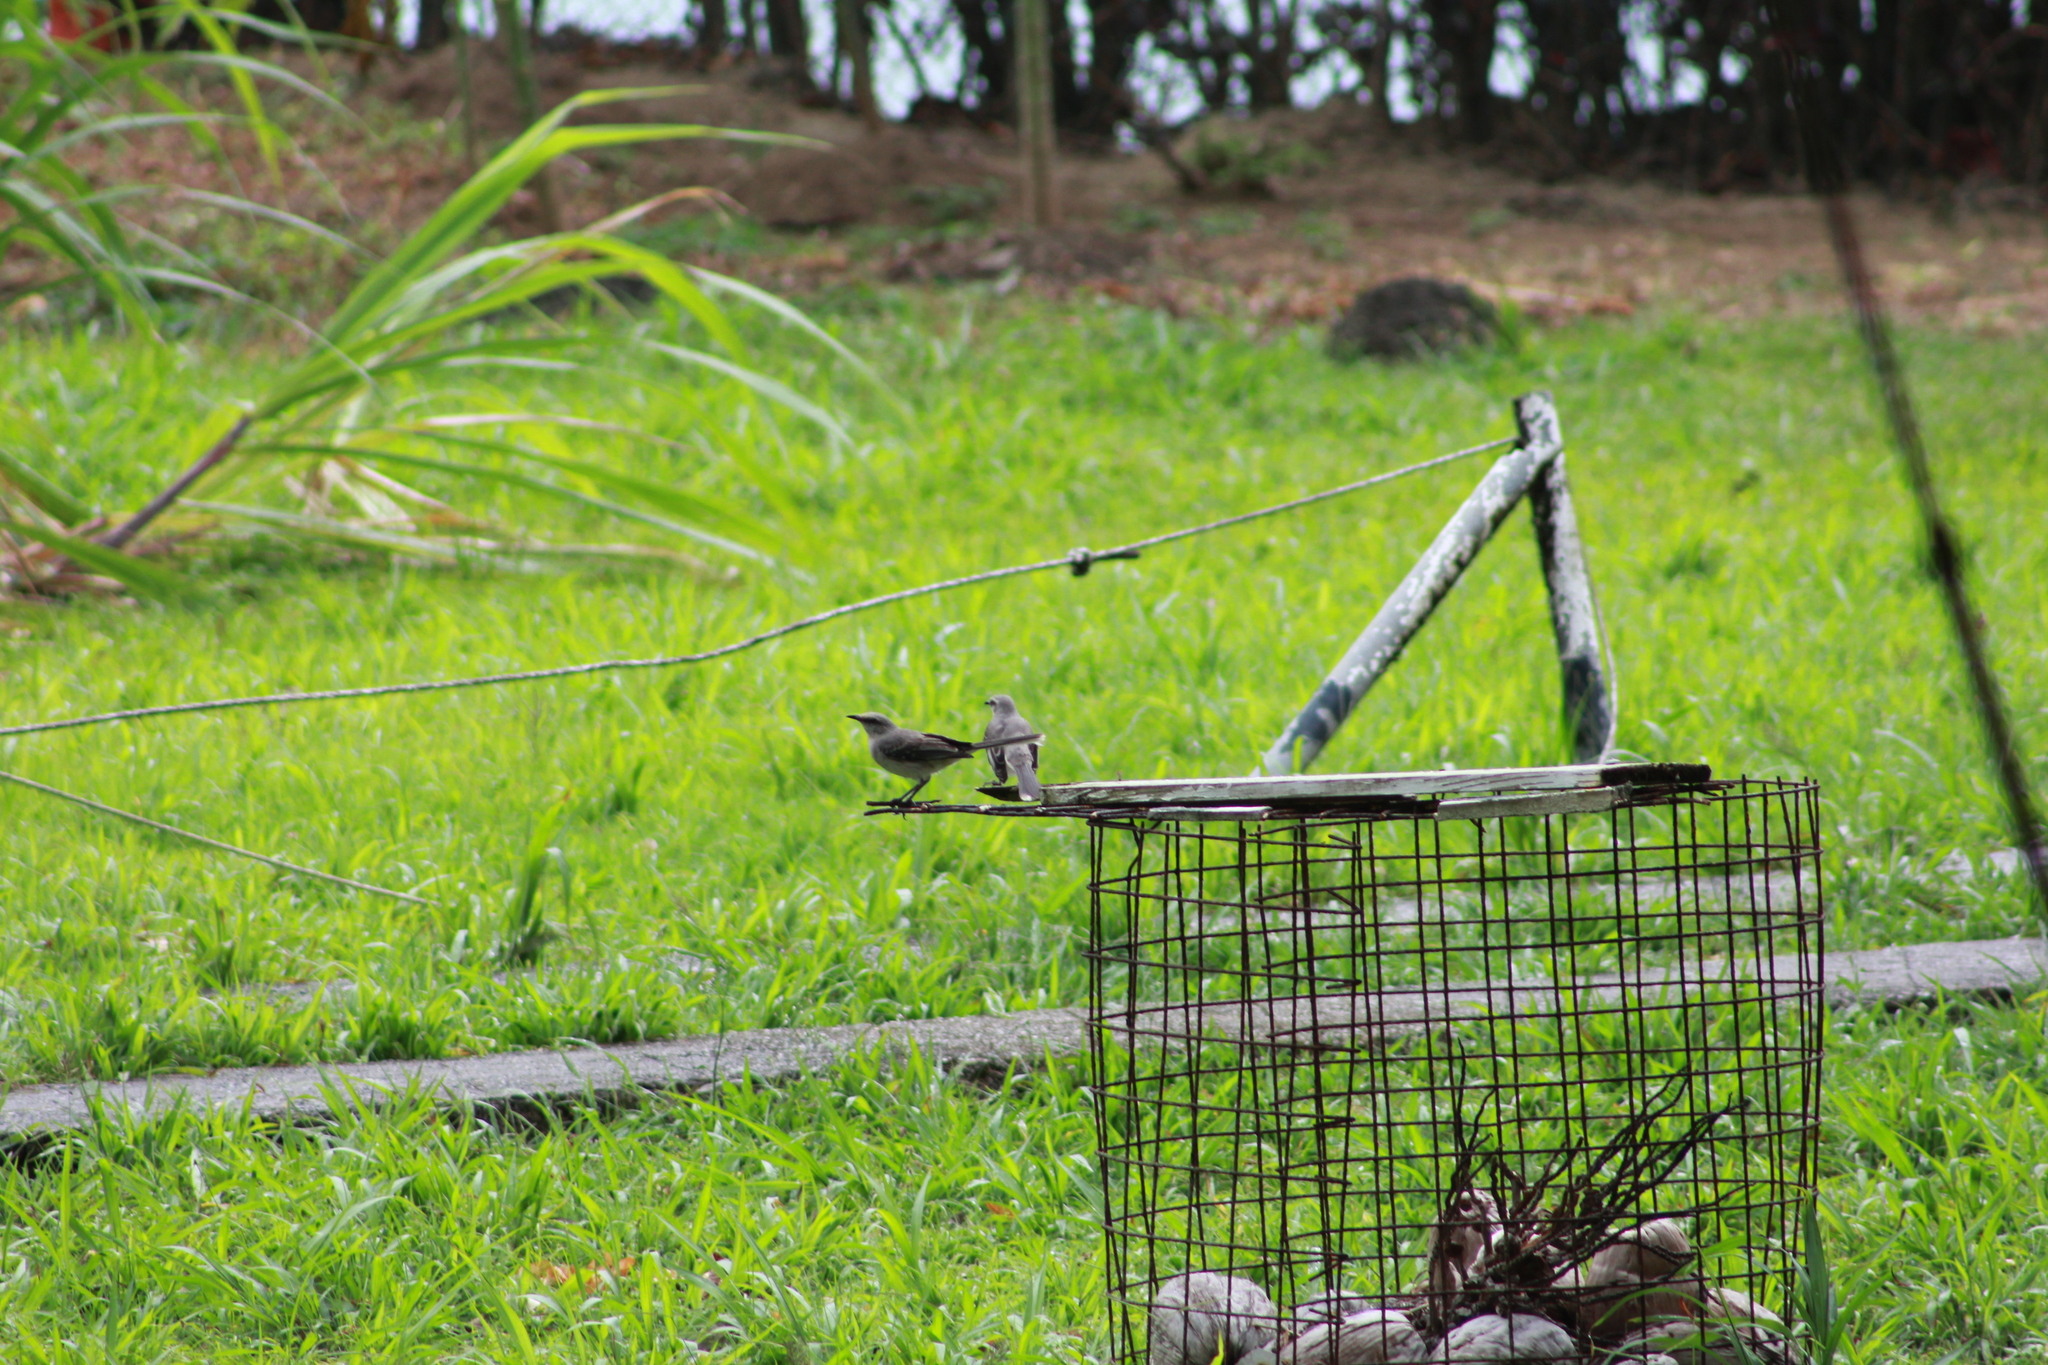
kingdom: Animalia
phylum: Chordata
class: Aves
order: Passeriformes
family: Mimidae
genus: Mimus
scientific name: Mimus gilvus
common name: Tropical mockingbird
